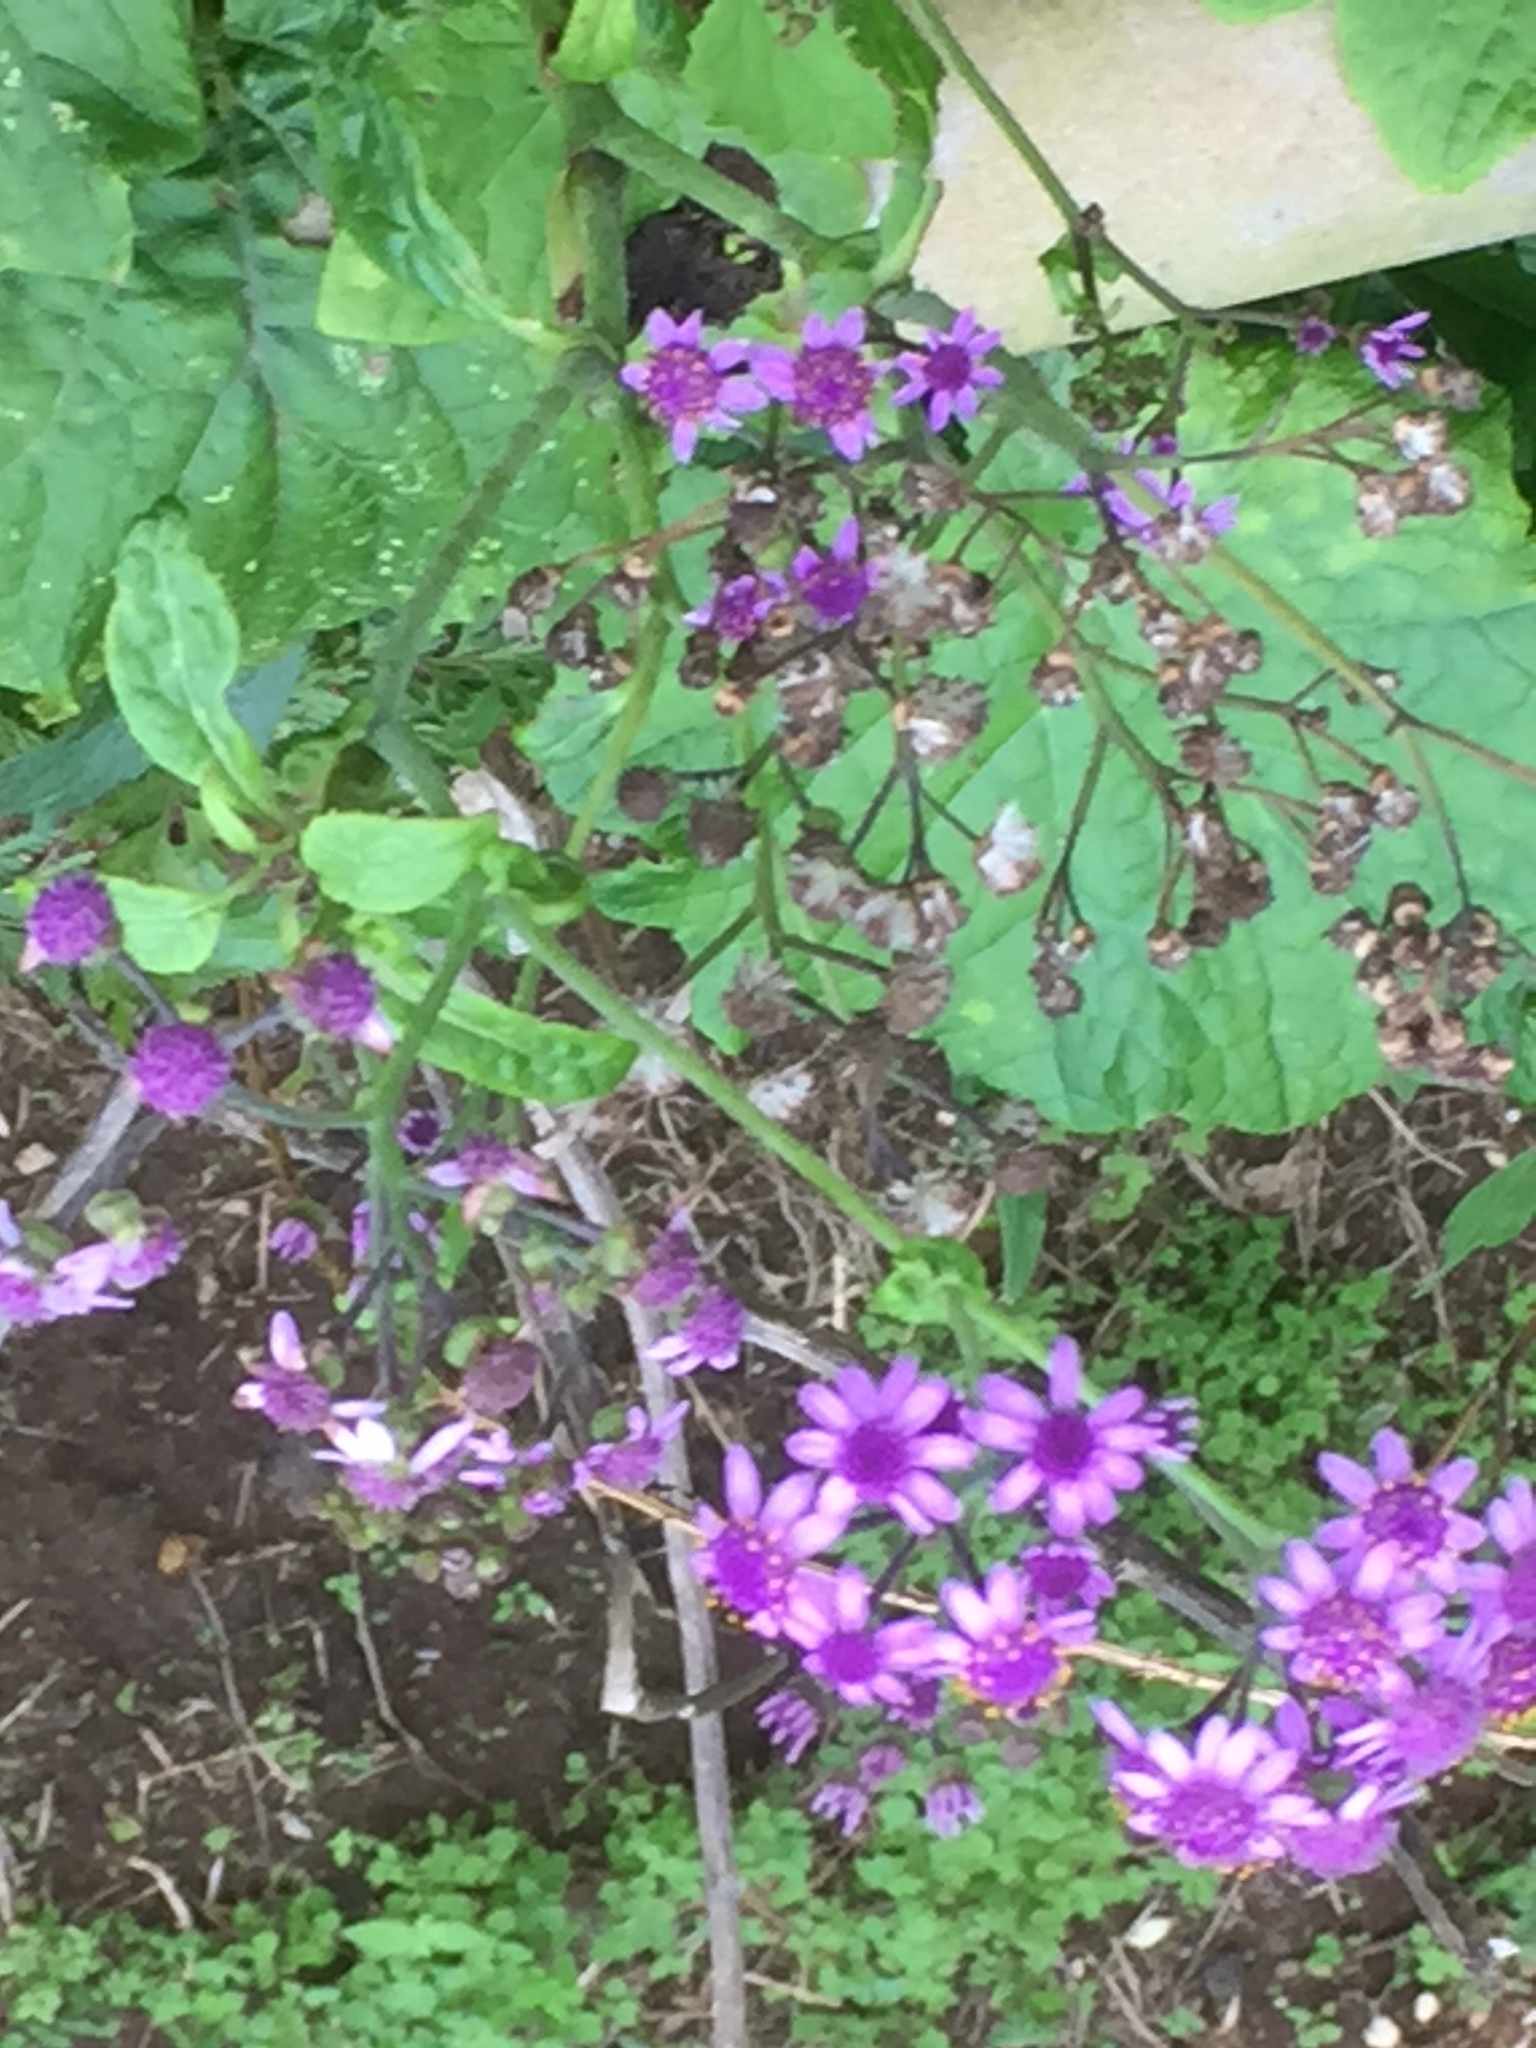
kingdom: Plantae
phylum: Tracheophyta
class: Magnoliopsida
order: Asterales
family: Asteraceae
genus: Pericallis
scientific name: Pericallis papyracea
